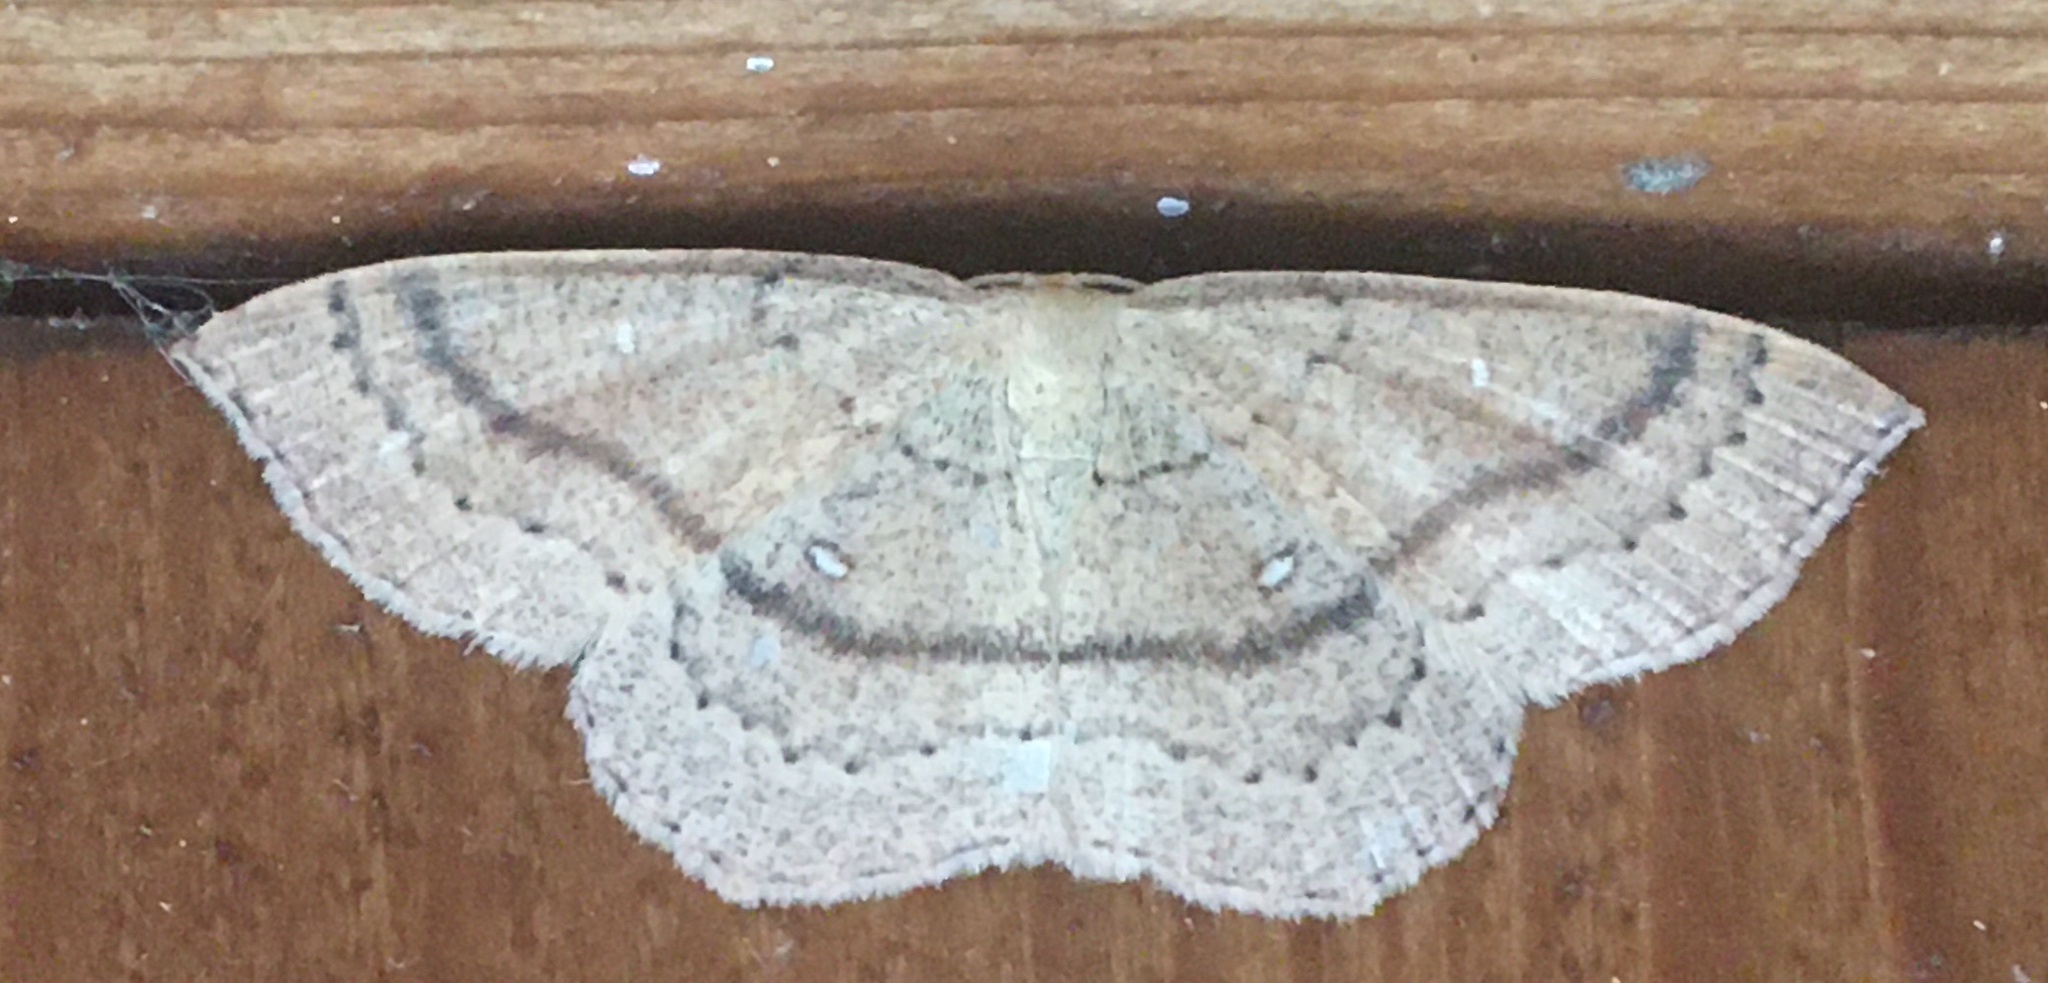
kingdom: Animalia
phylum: Arthropoda
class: Insecta
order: Lepidoptera
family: Geometridae
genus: Cyclophora
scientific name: Cyclophora linearia
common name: Clay triple-lines
